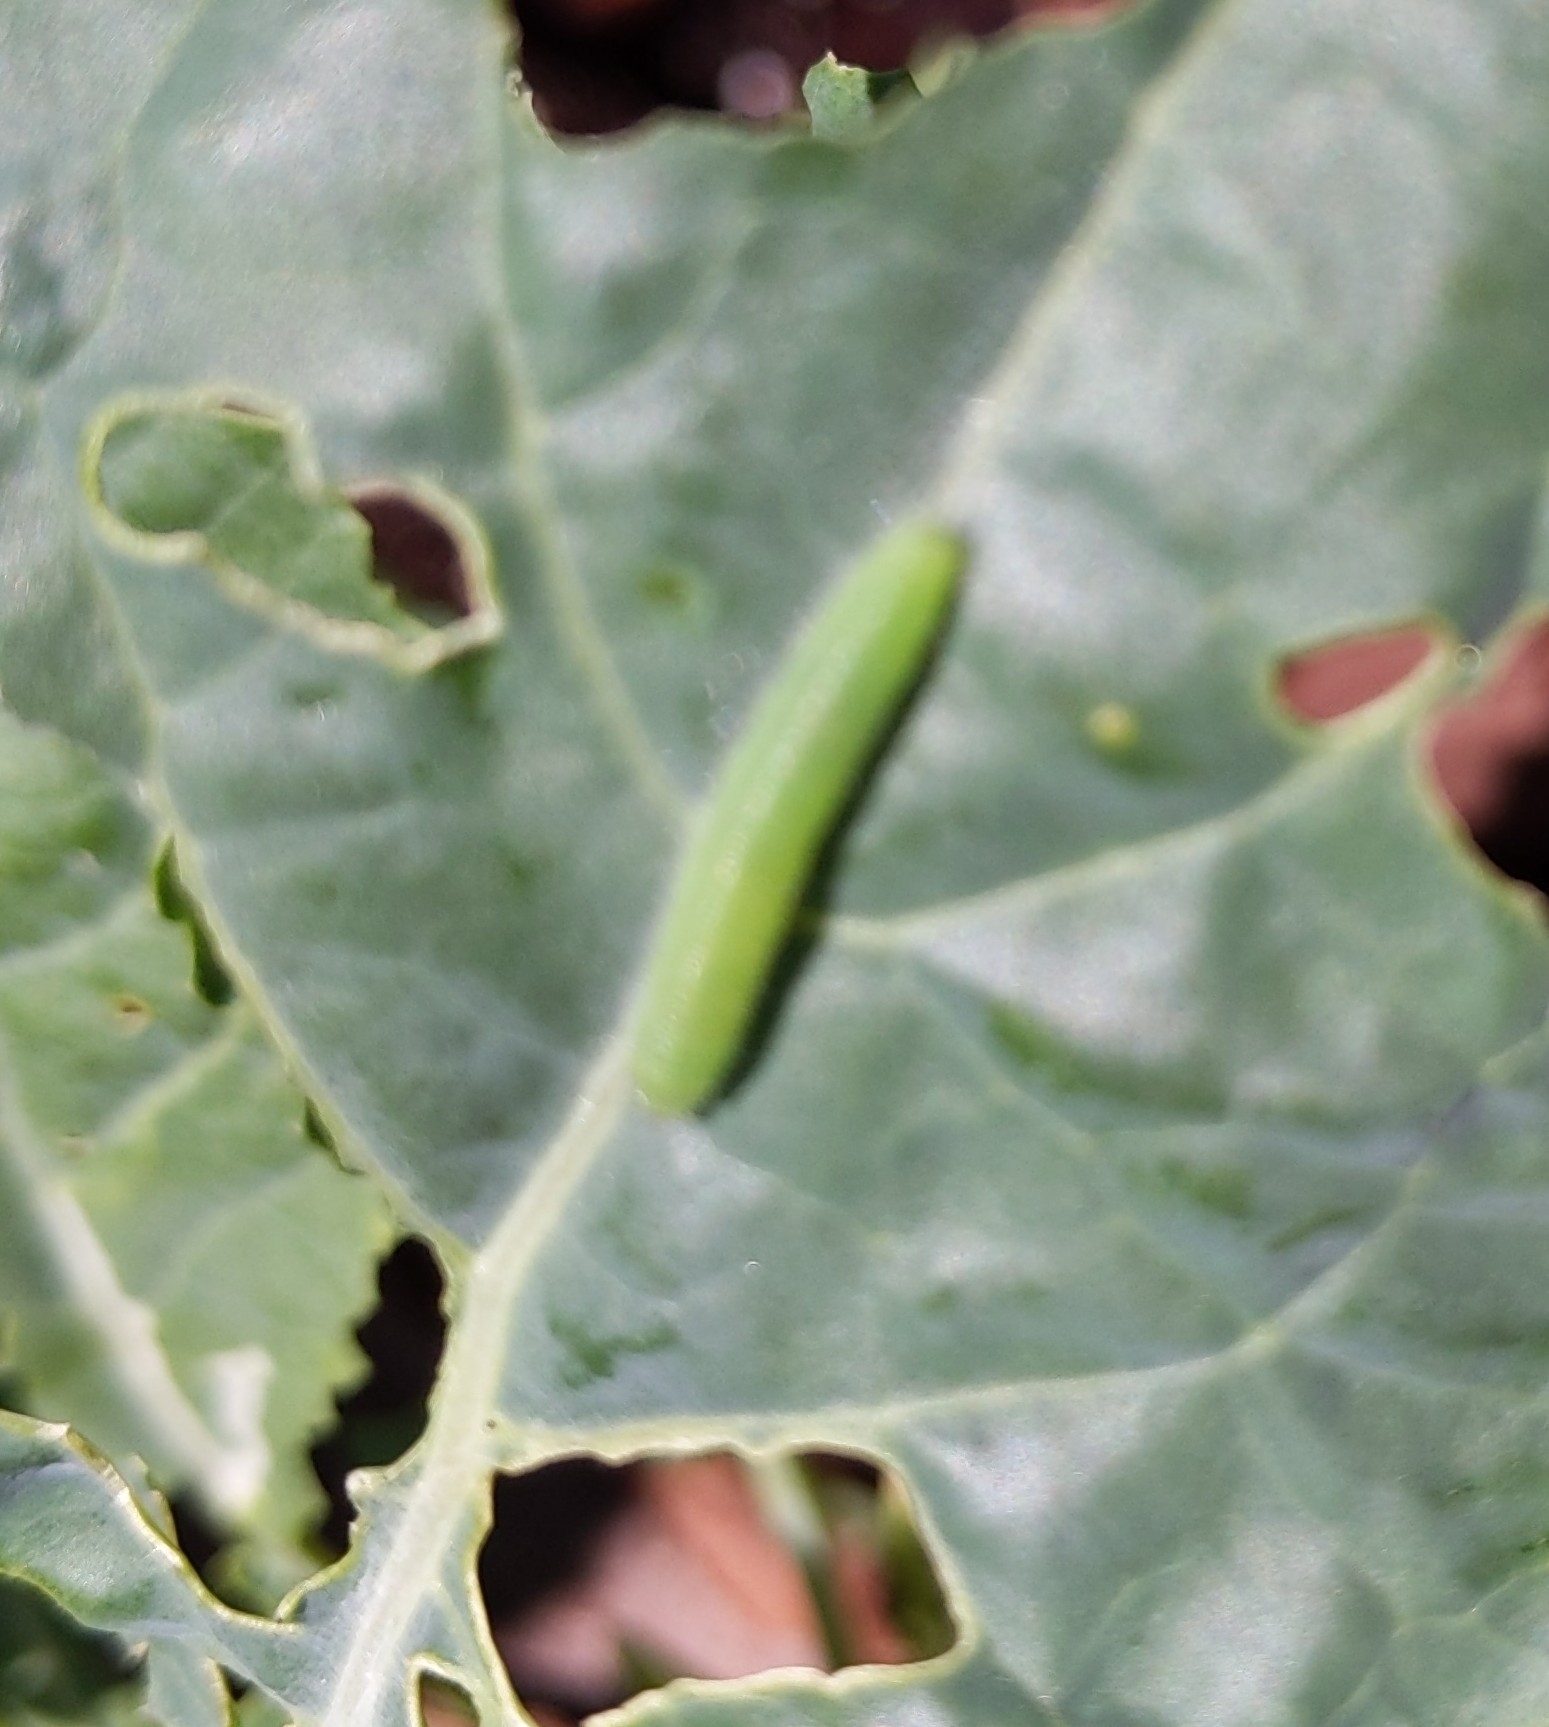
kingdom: Animalia
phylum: Arthropoda
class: Insecta
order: Lepidoptera
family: Pieridae
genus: Pieris
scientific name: Pieris rapae
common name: Small white
